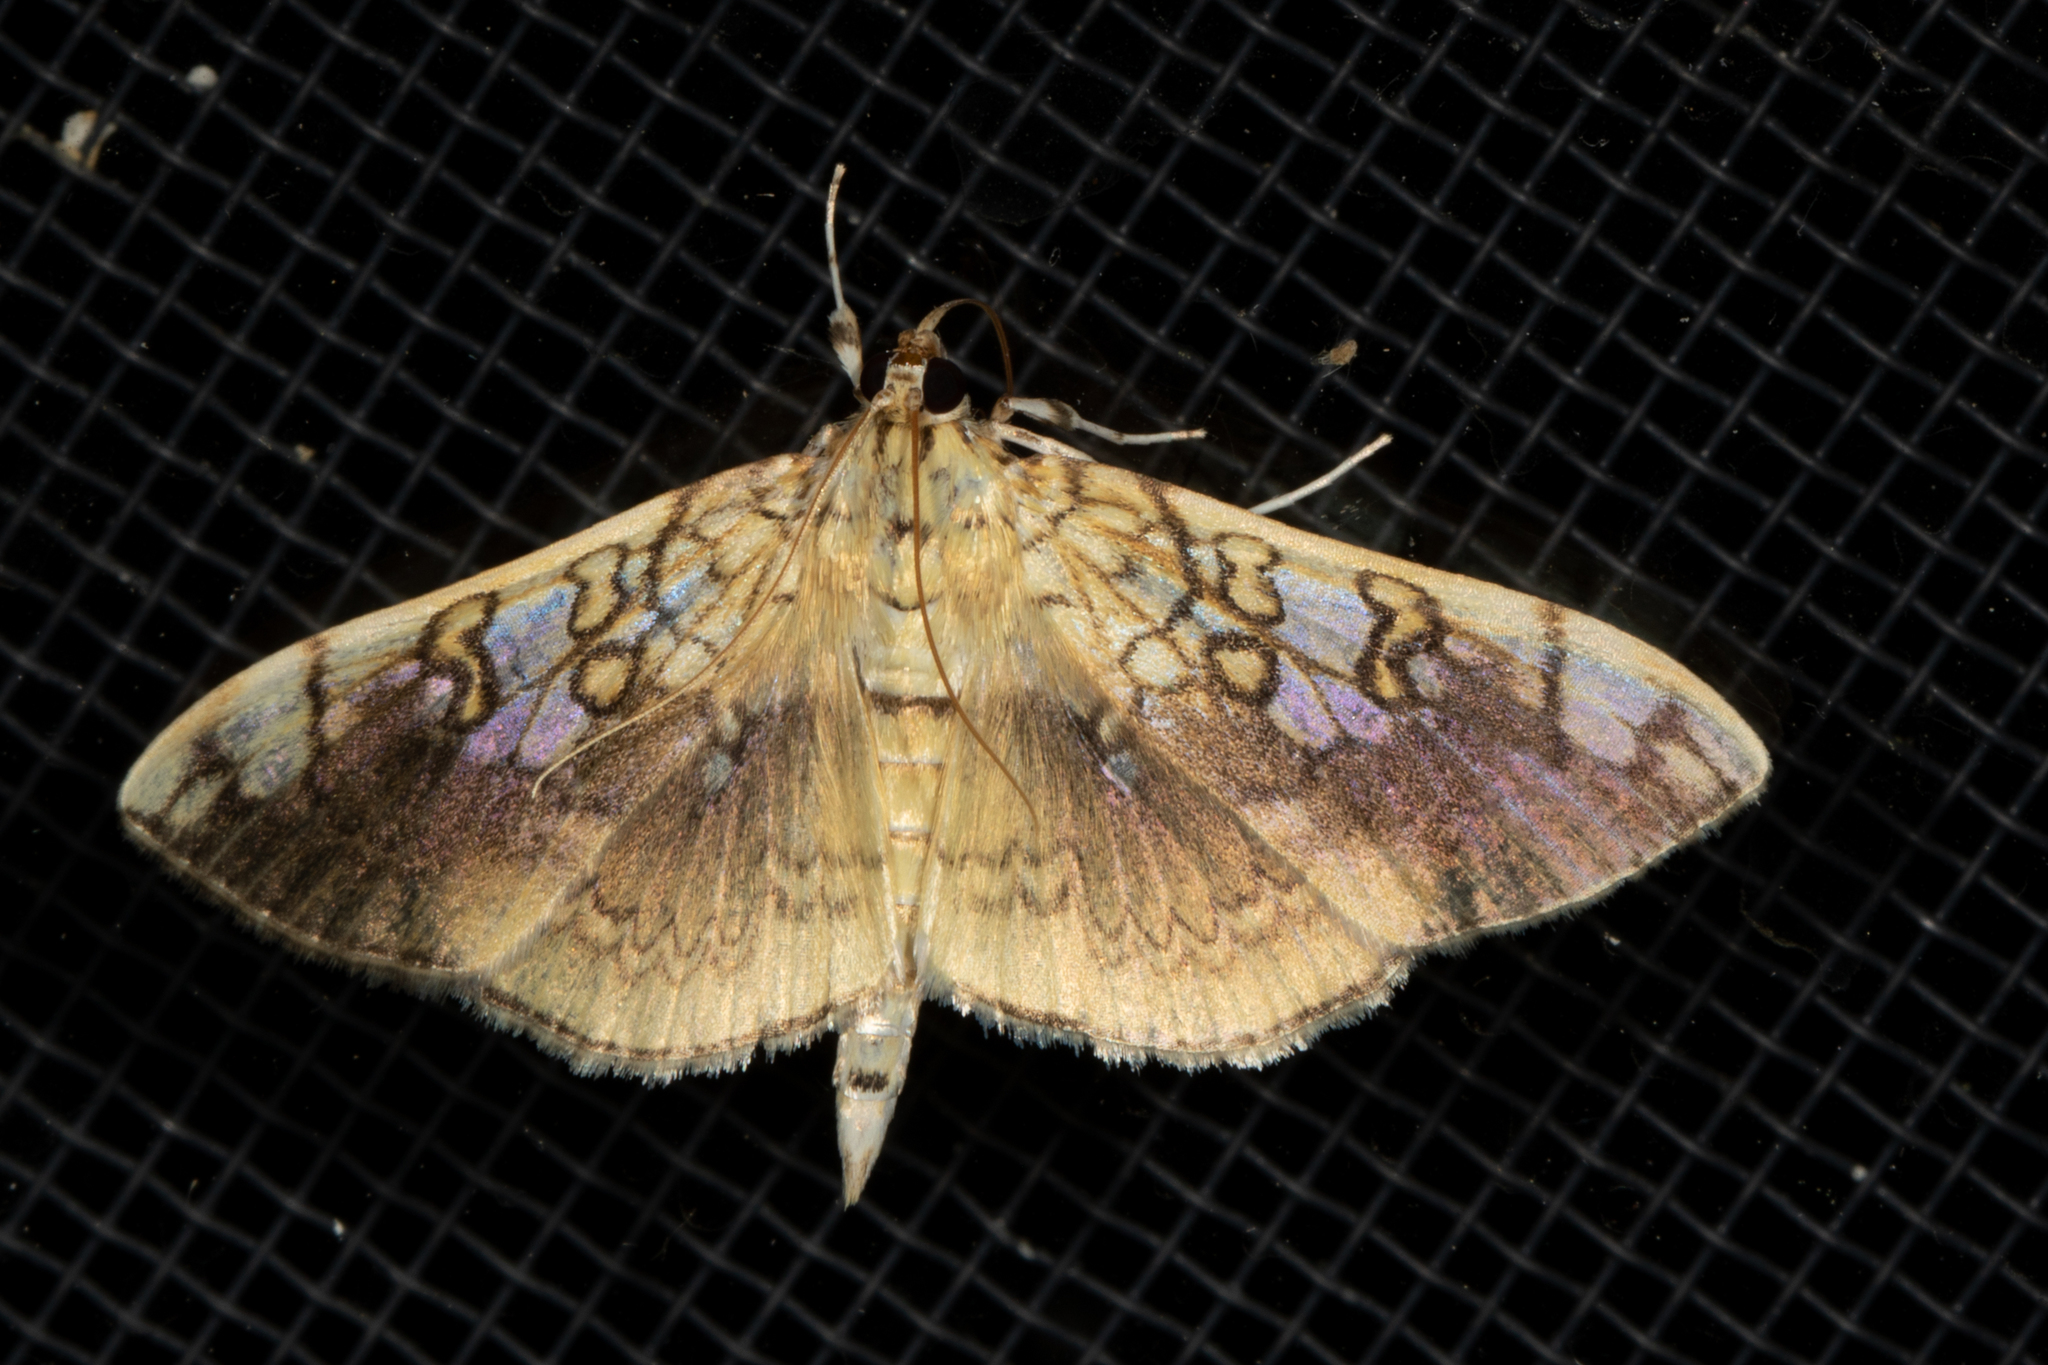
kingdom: Animalia
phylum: Arthropoda
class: Insecta
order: Lepidoptera
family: Crambidae
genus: Pantographa
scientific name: Pantographa limata
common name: Basswood leafroller moth
